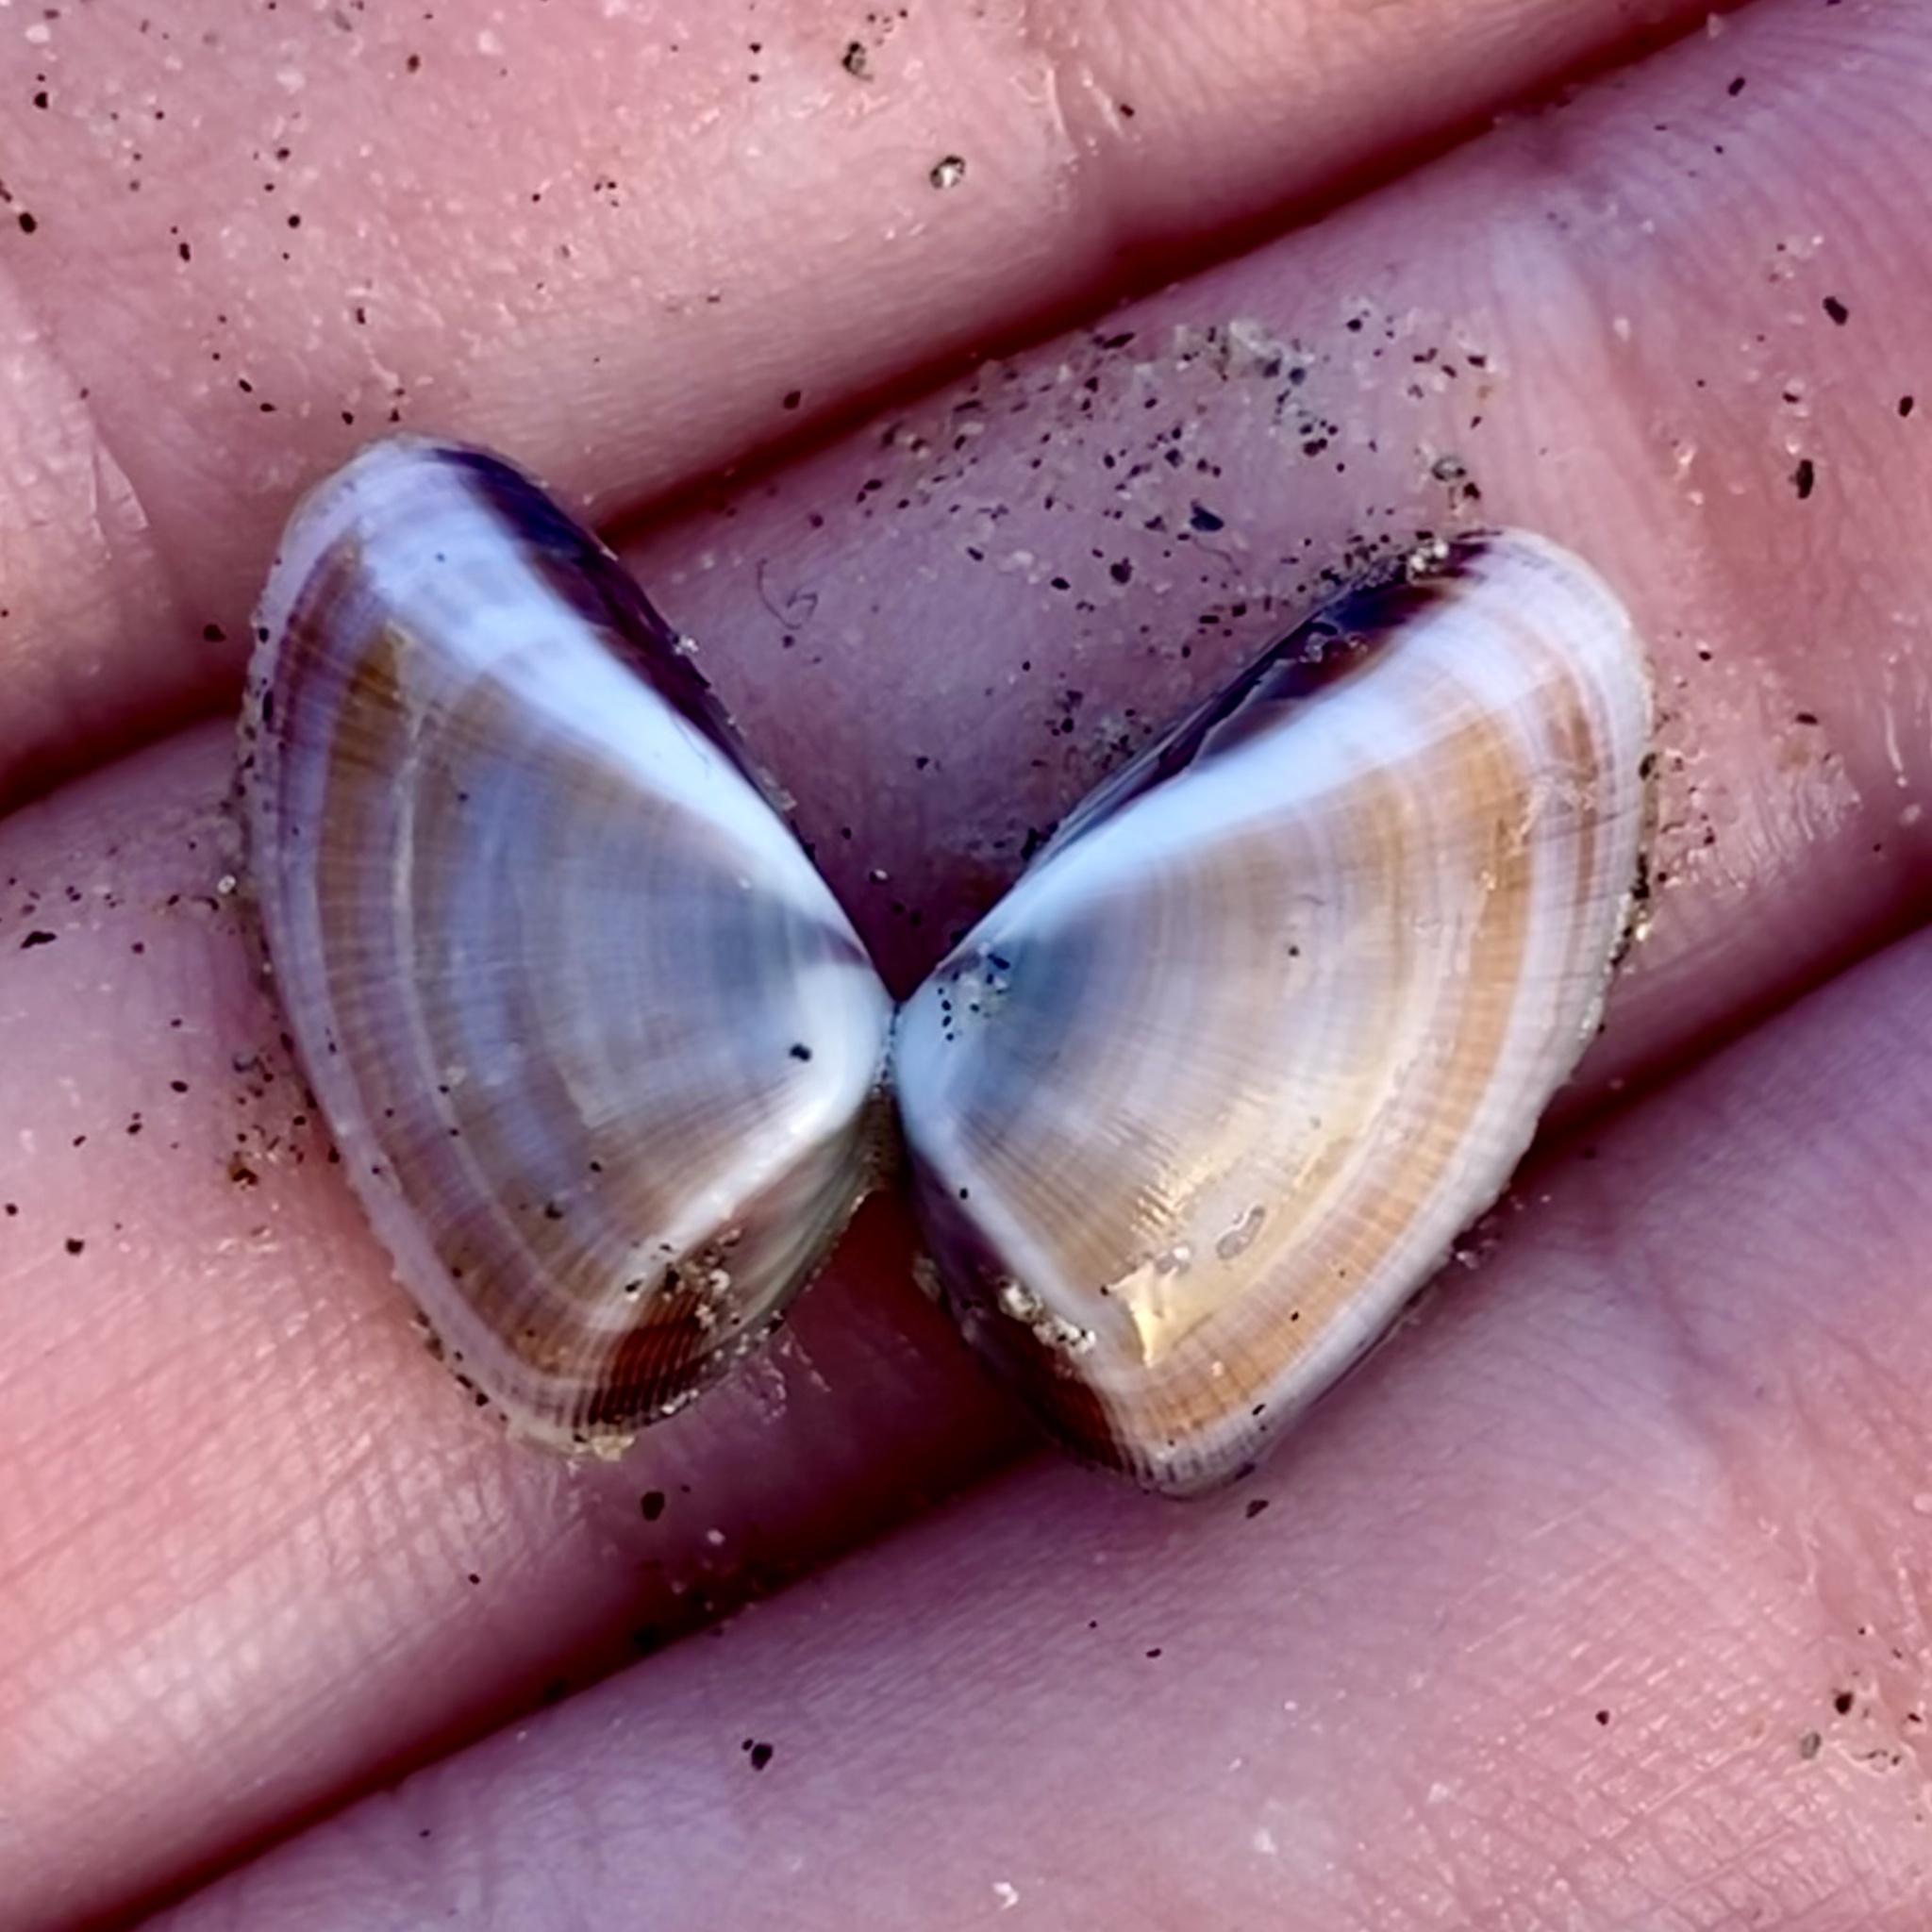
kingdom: Animalia
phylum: Mollusca
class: Bivalvia
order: Cardiida
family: Donacidae
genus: Donax
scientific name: Donax gouldii
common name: Gould beanclam
